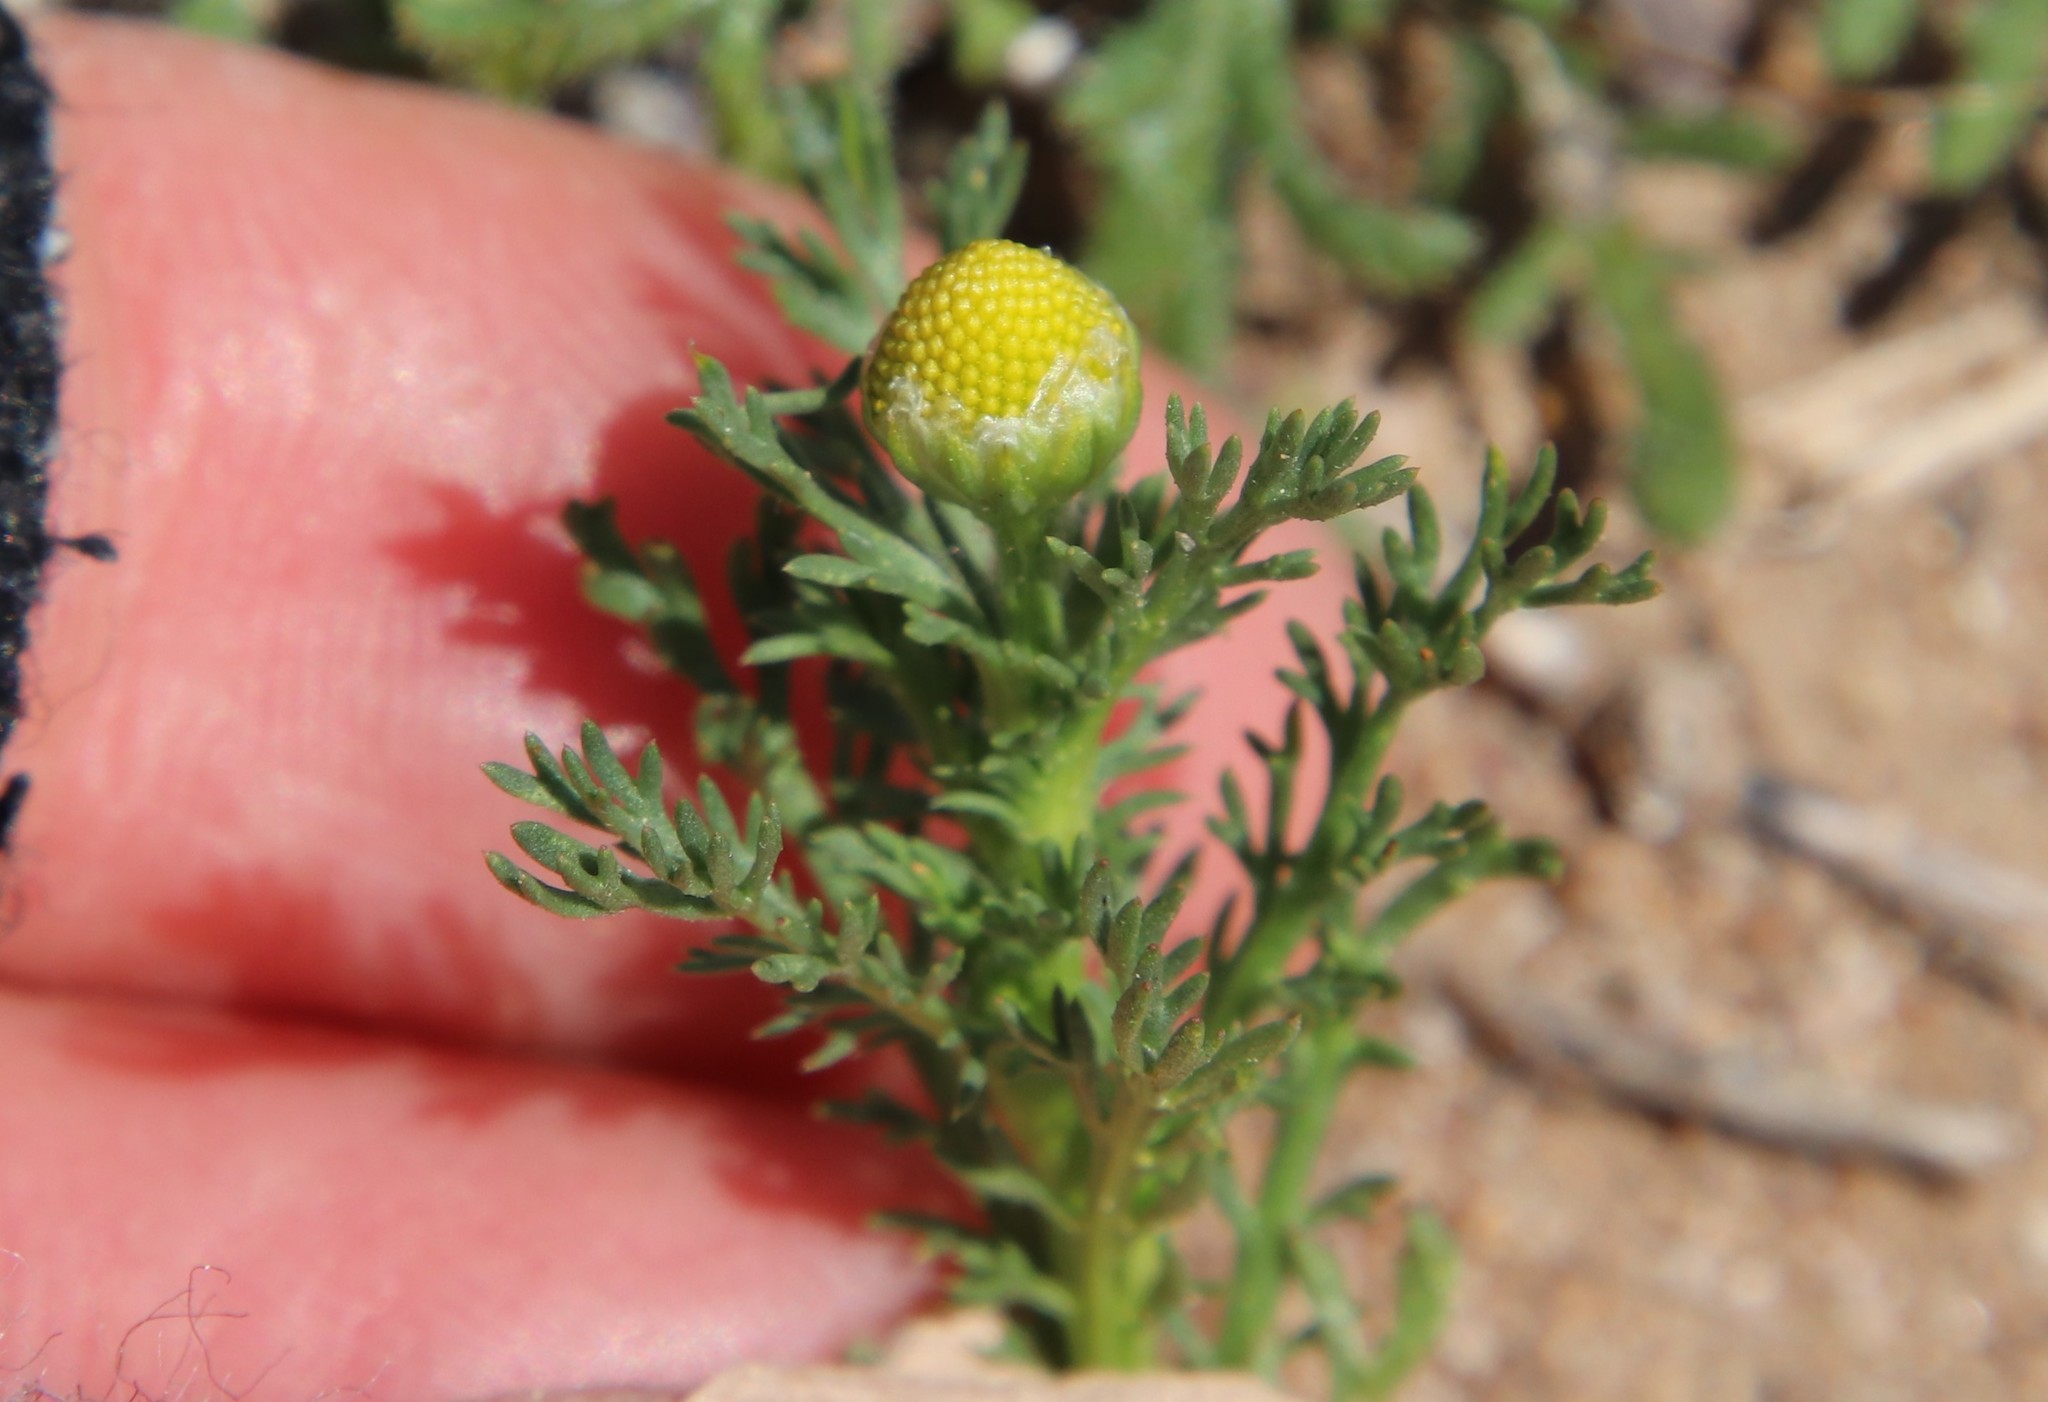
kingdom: Plantae
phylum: Tracheophyta
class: Magnoliopsida
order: Asterales
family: Asteraceae
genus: Matricaria
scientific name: Matricaria discoidea
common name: Disc mayweed
